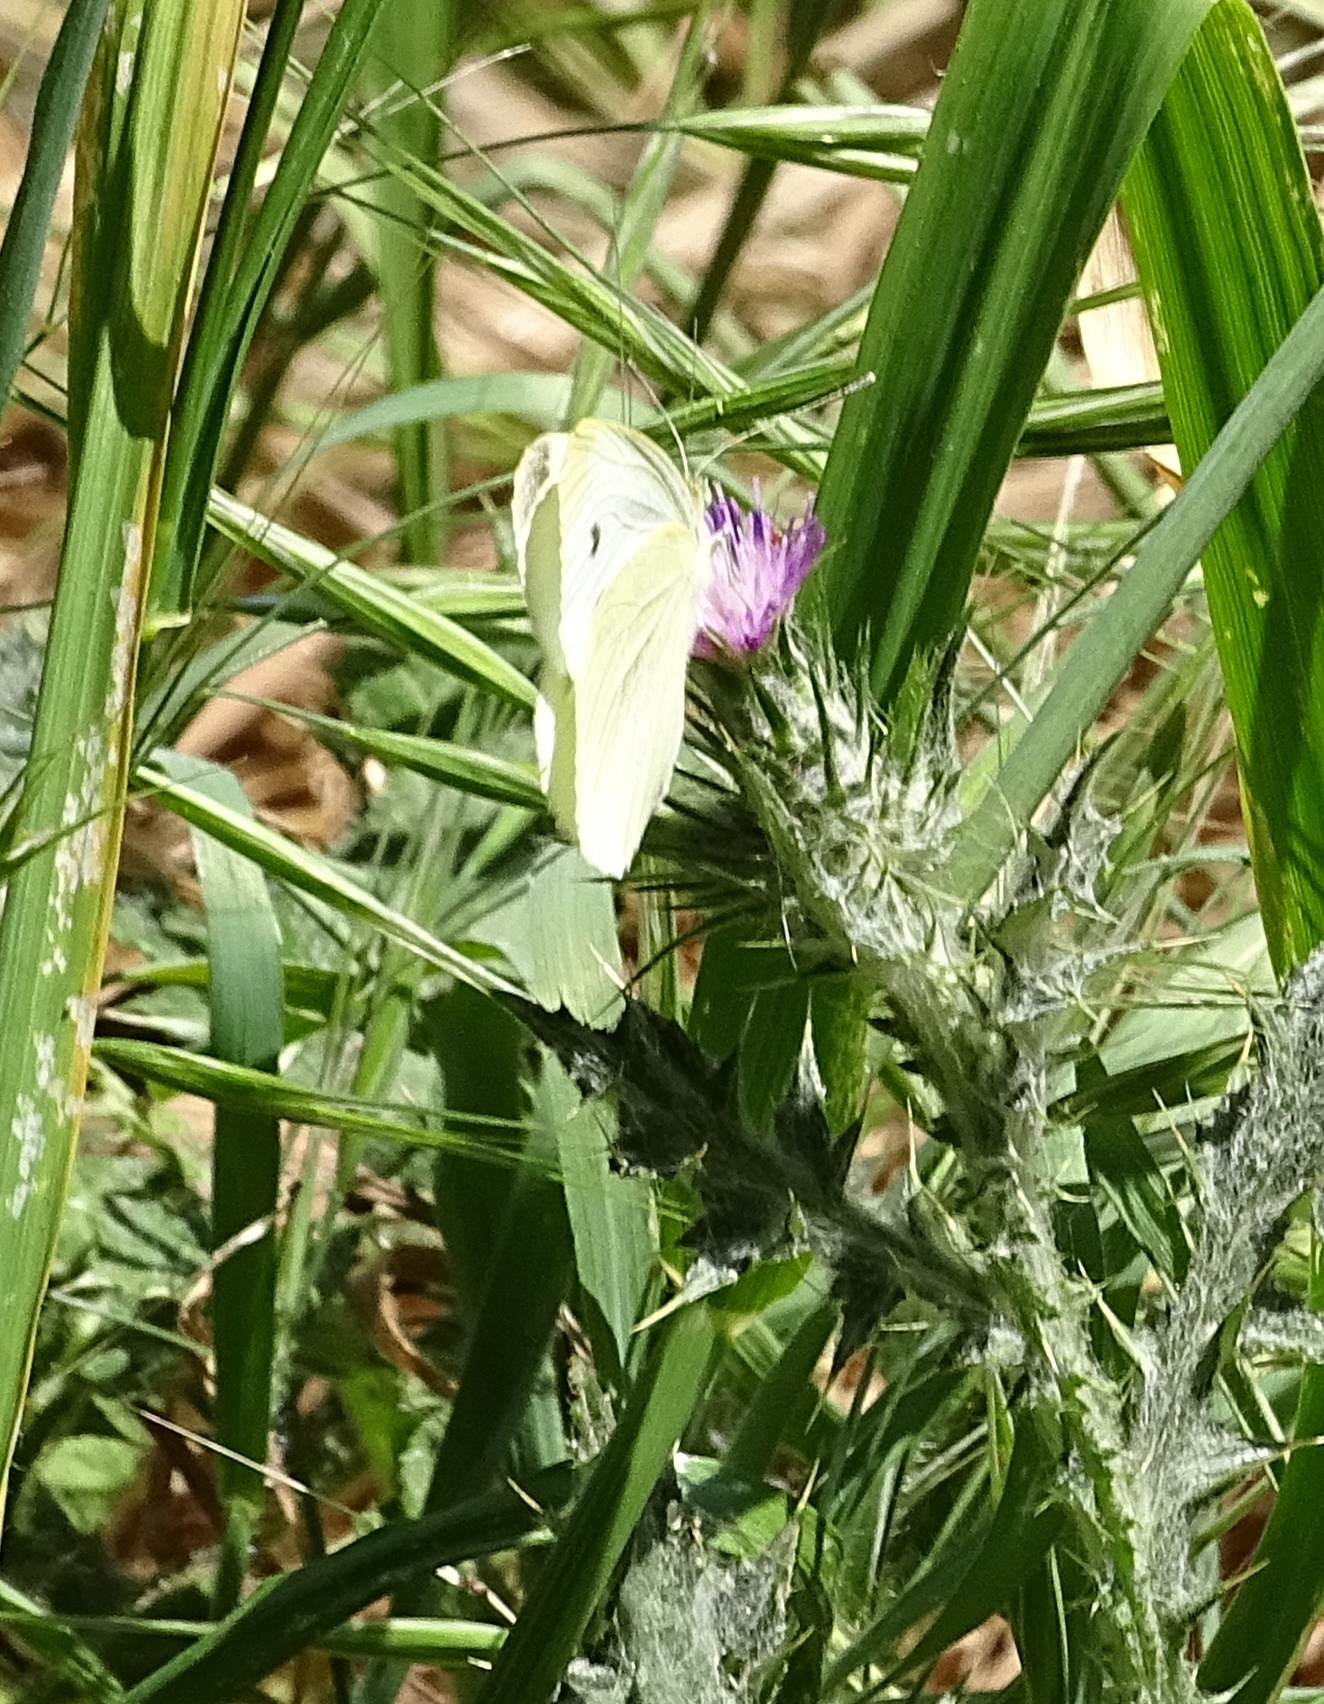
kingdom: Animalia
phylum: Arthropoda
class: Insecta
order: Lepidoptera
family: Pieridae
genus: Pieris
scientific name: Pieris rapae
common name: Small white
